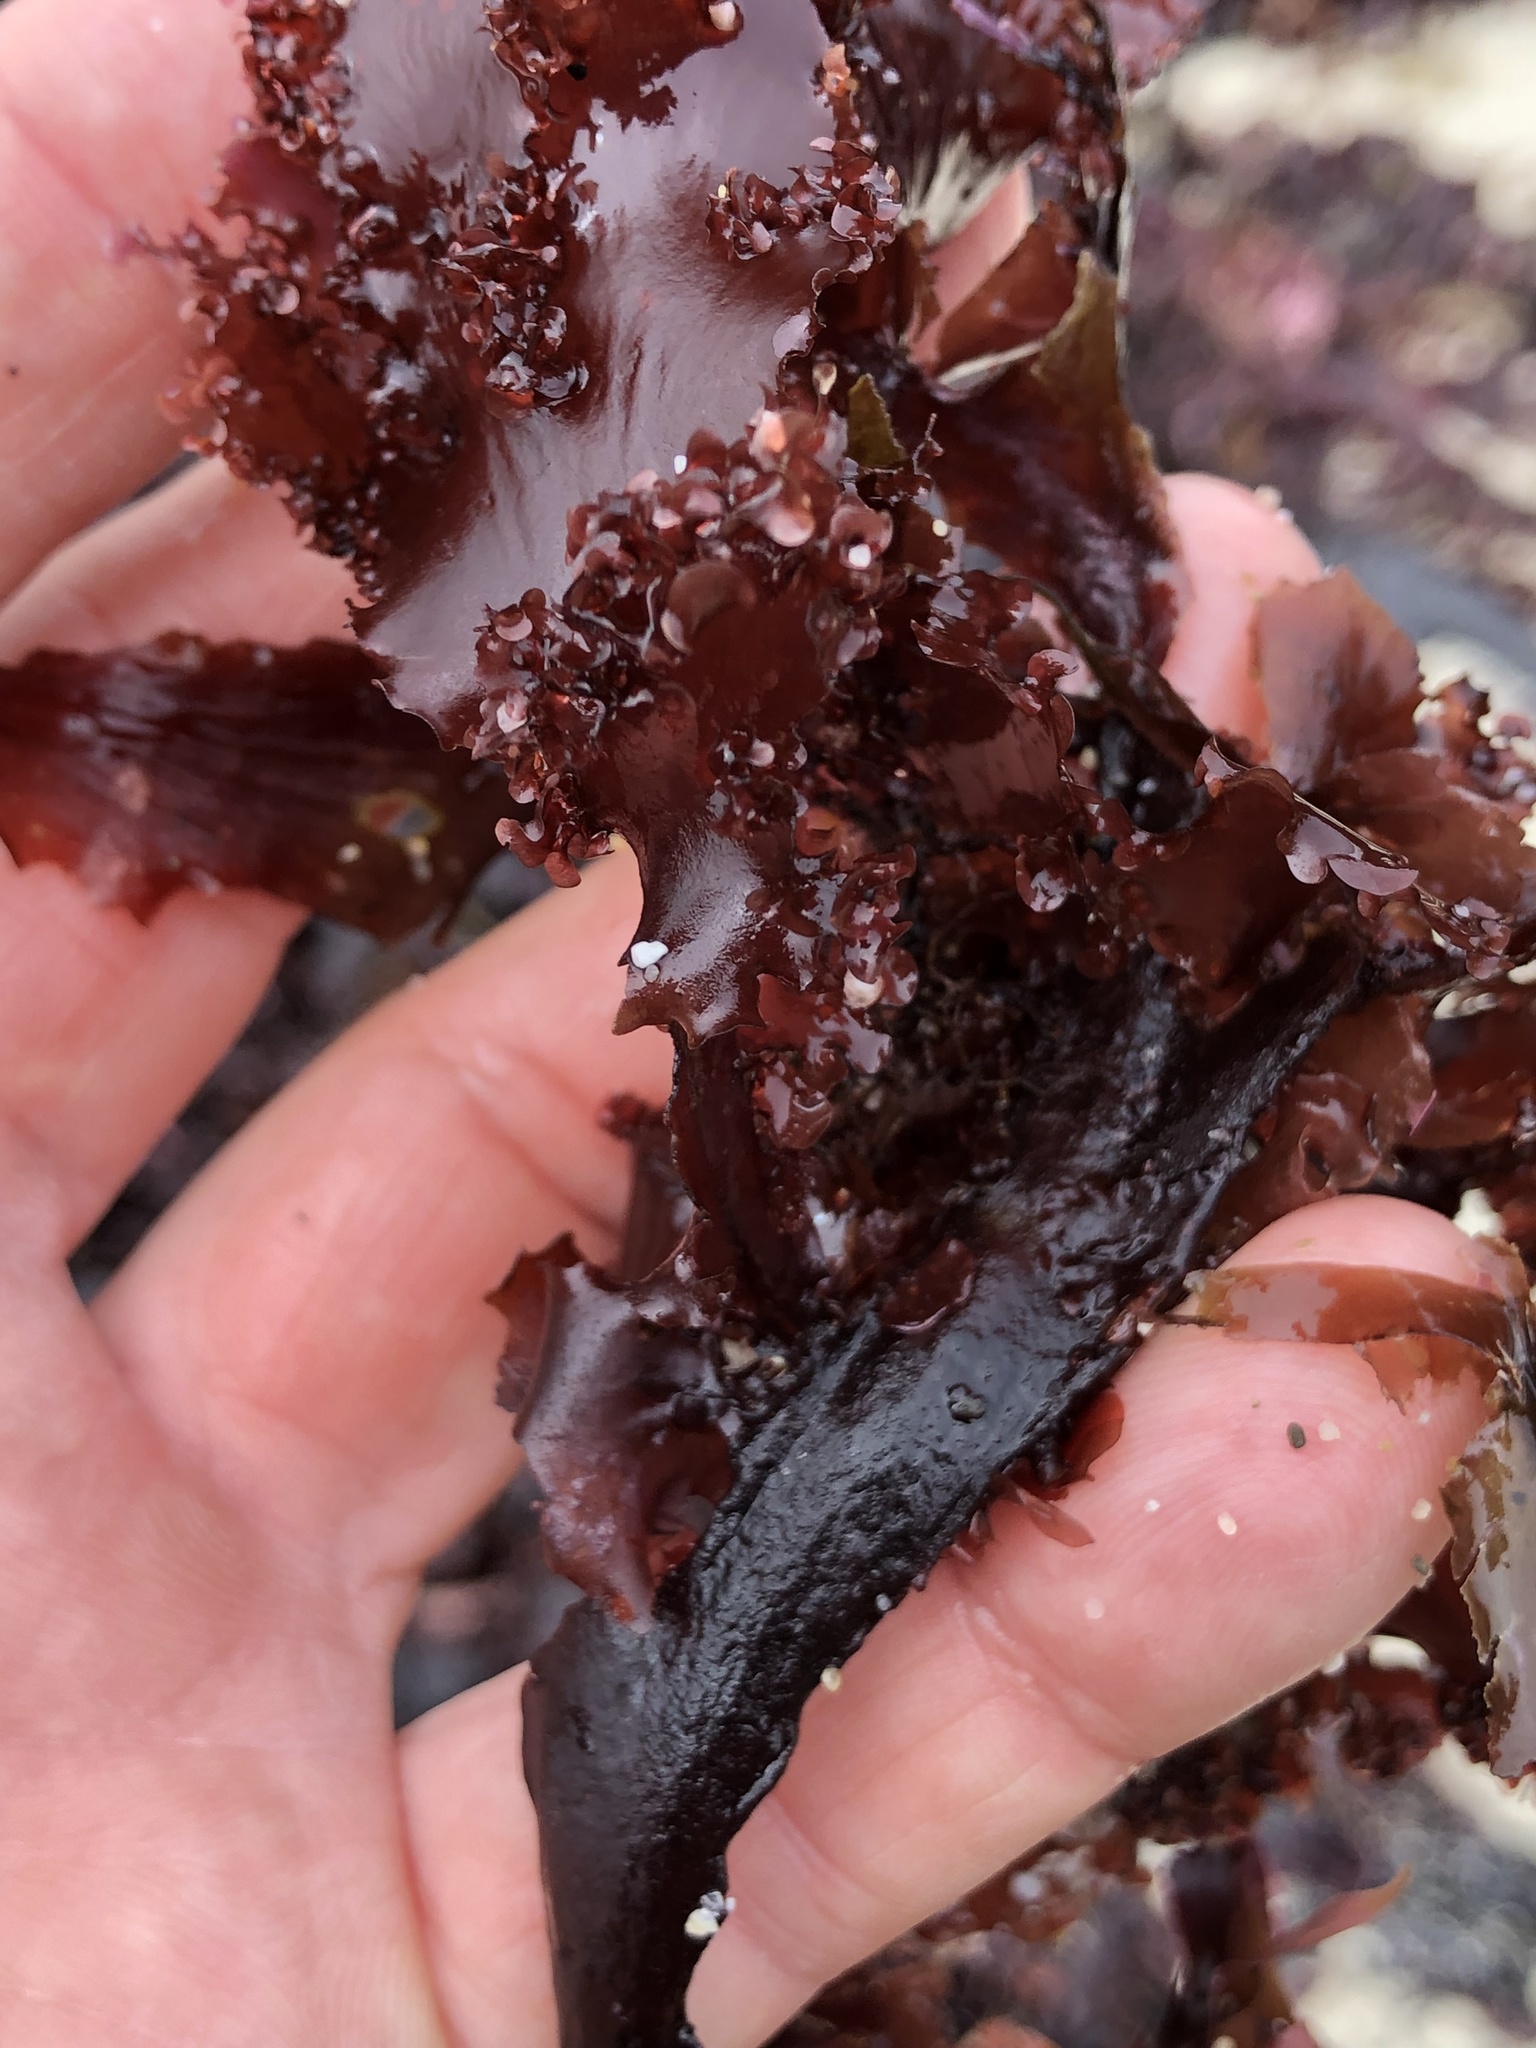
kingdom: Plantae
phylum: Rhodophyta
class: Florideophyceae
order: Ceramiales
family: Delesseriaceae
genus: Cryptopleura
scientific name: Cryptopleura ruprechtiana
